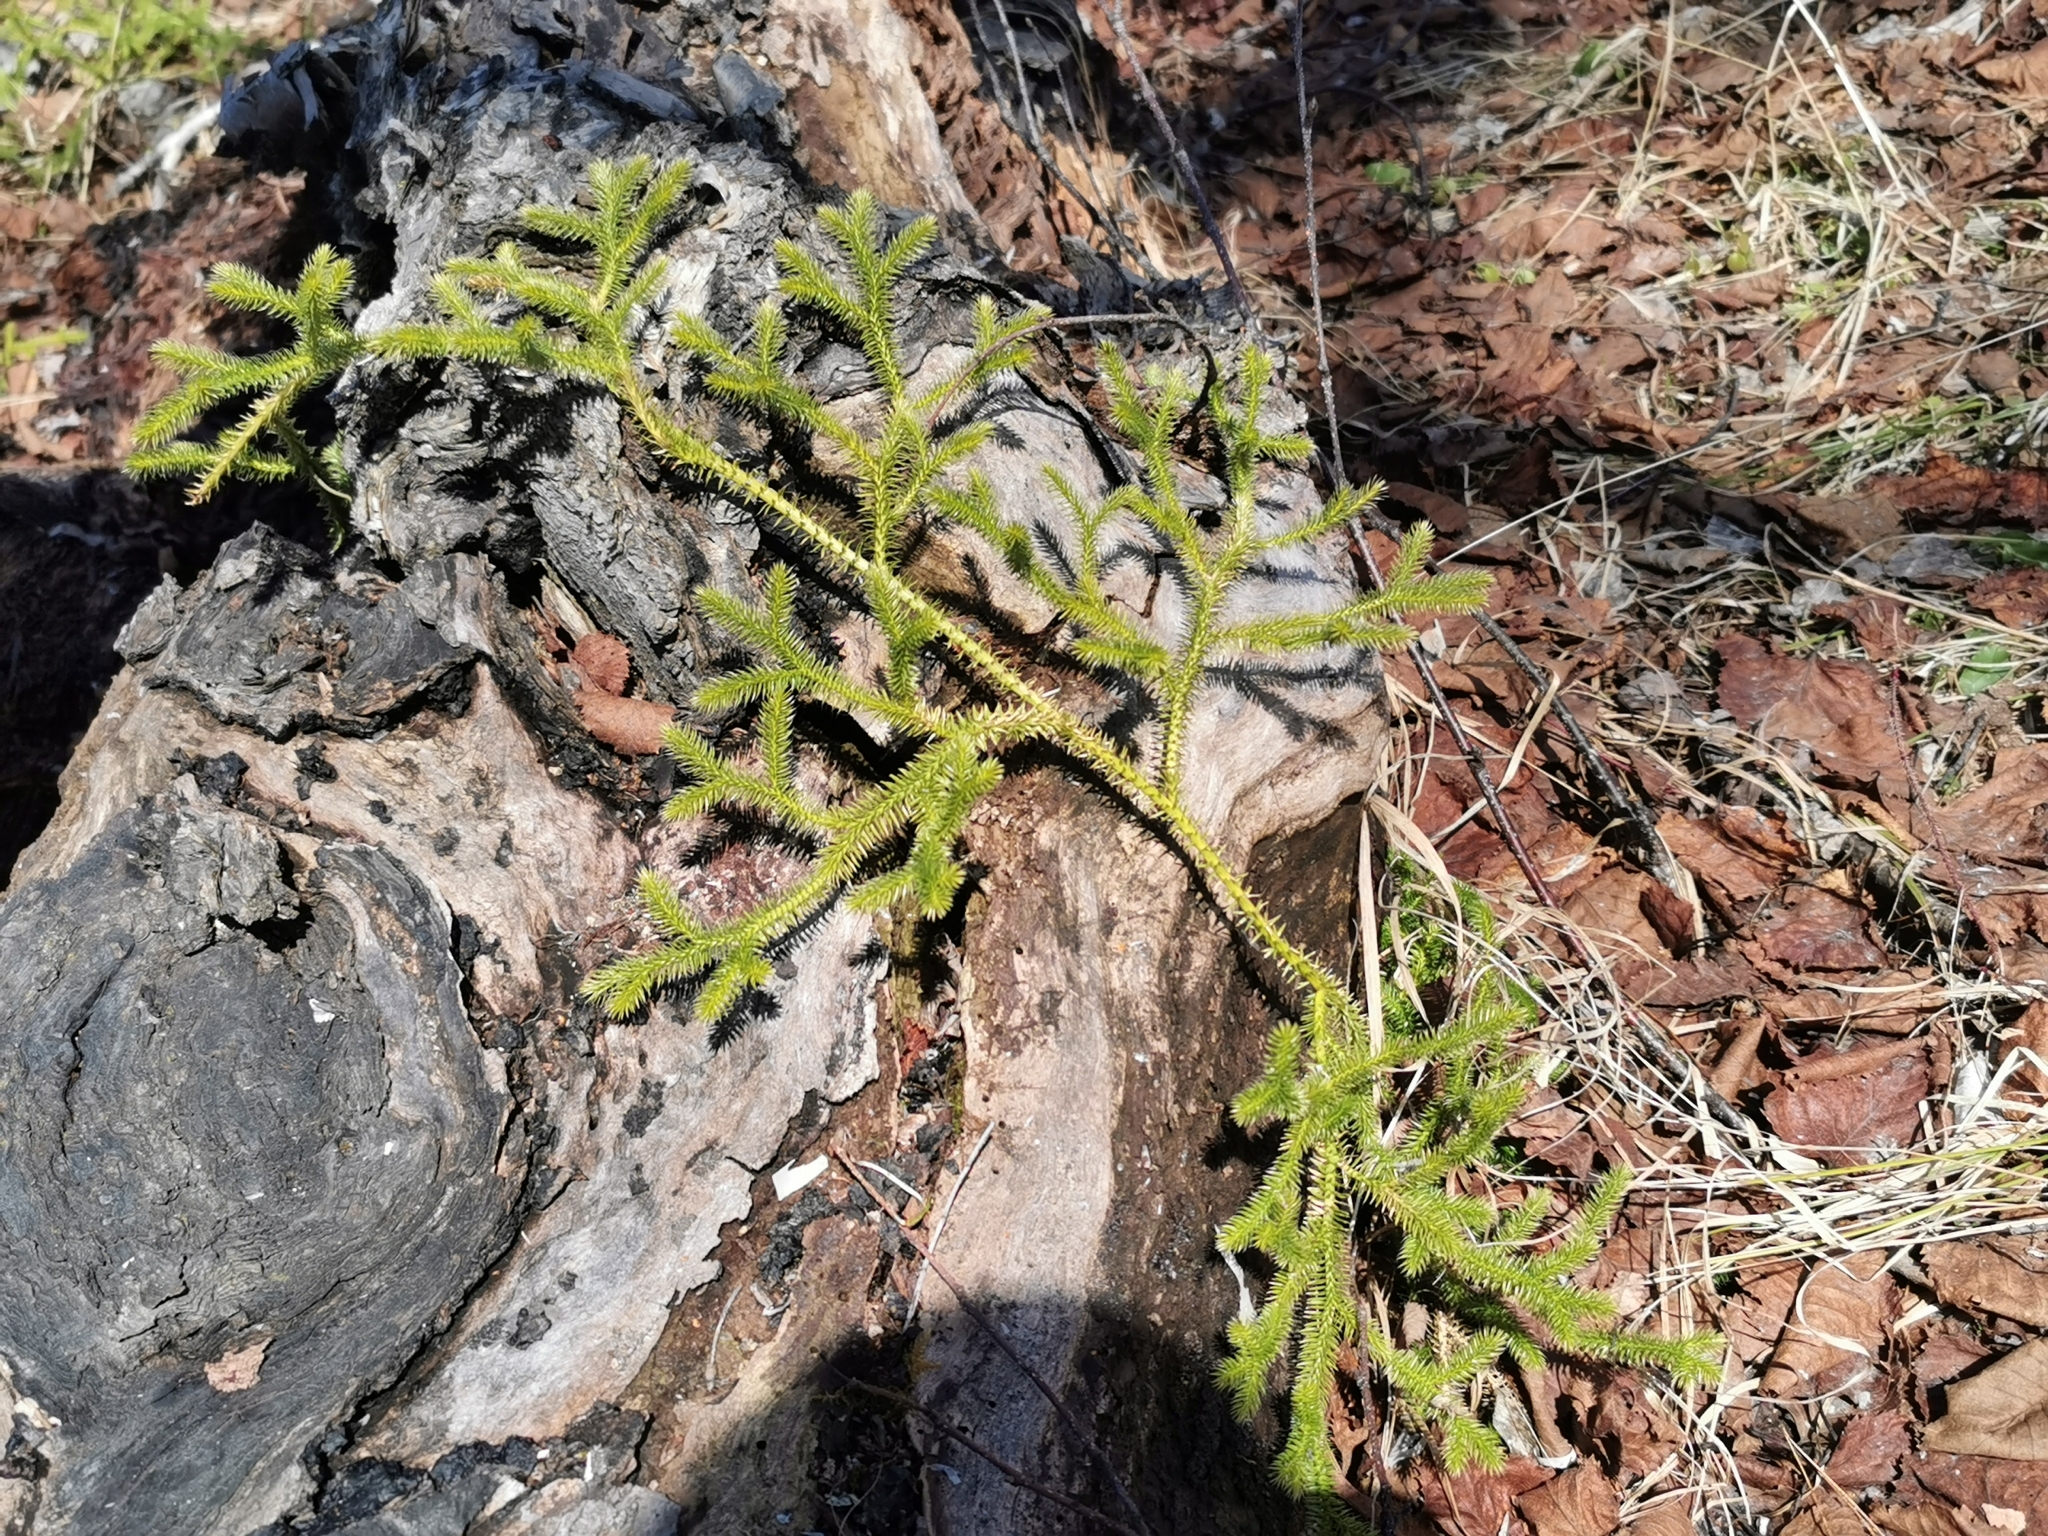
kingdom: Plantae
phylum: Tracheophyta
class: Lycopodiopsida
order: Lycopodiales
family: Lycopodiaceae
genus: Lycopodium
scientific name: Lycopodium clavatum
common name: Stag's-horn clubmoss
